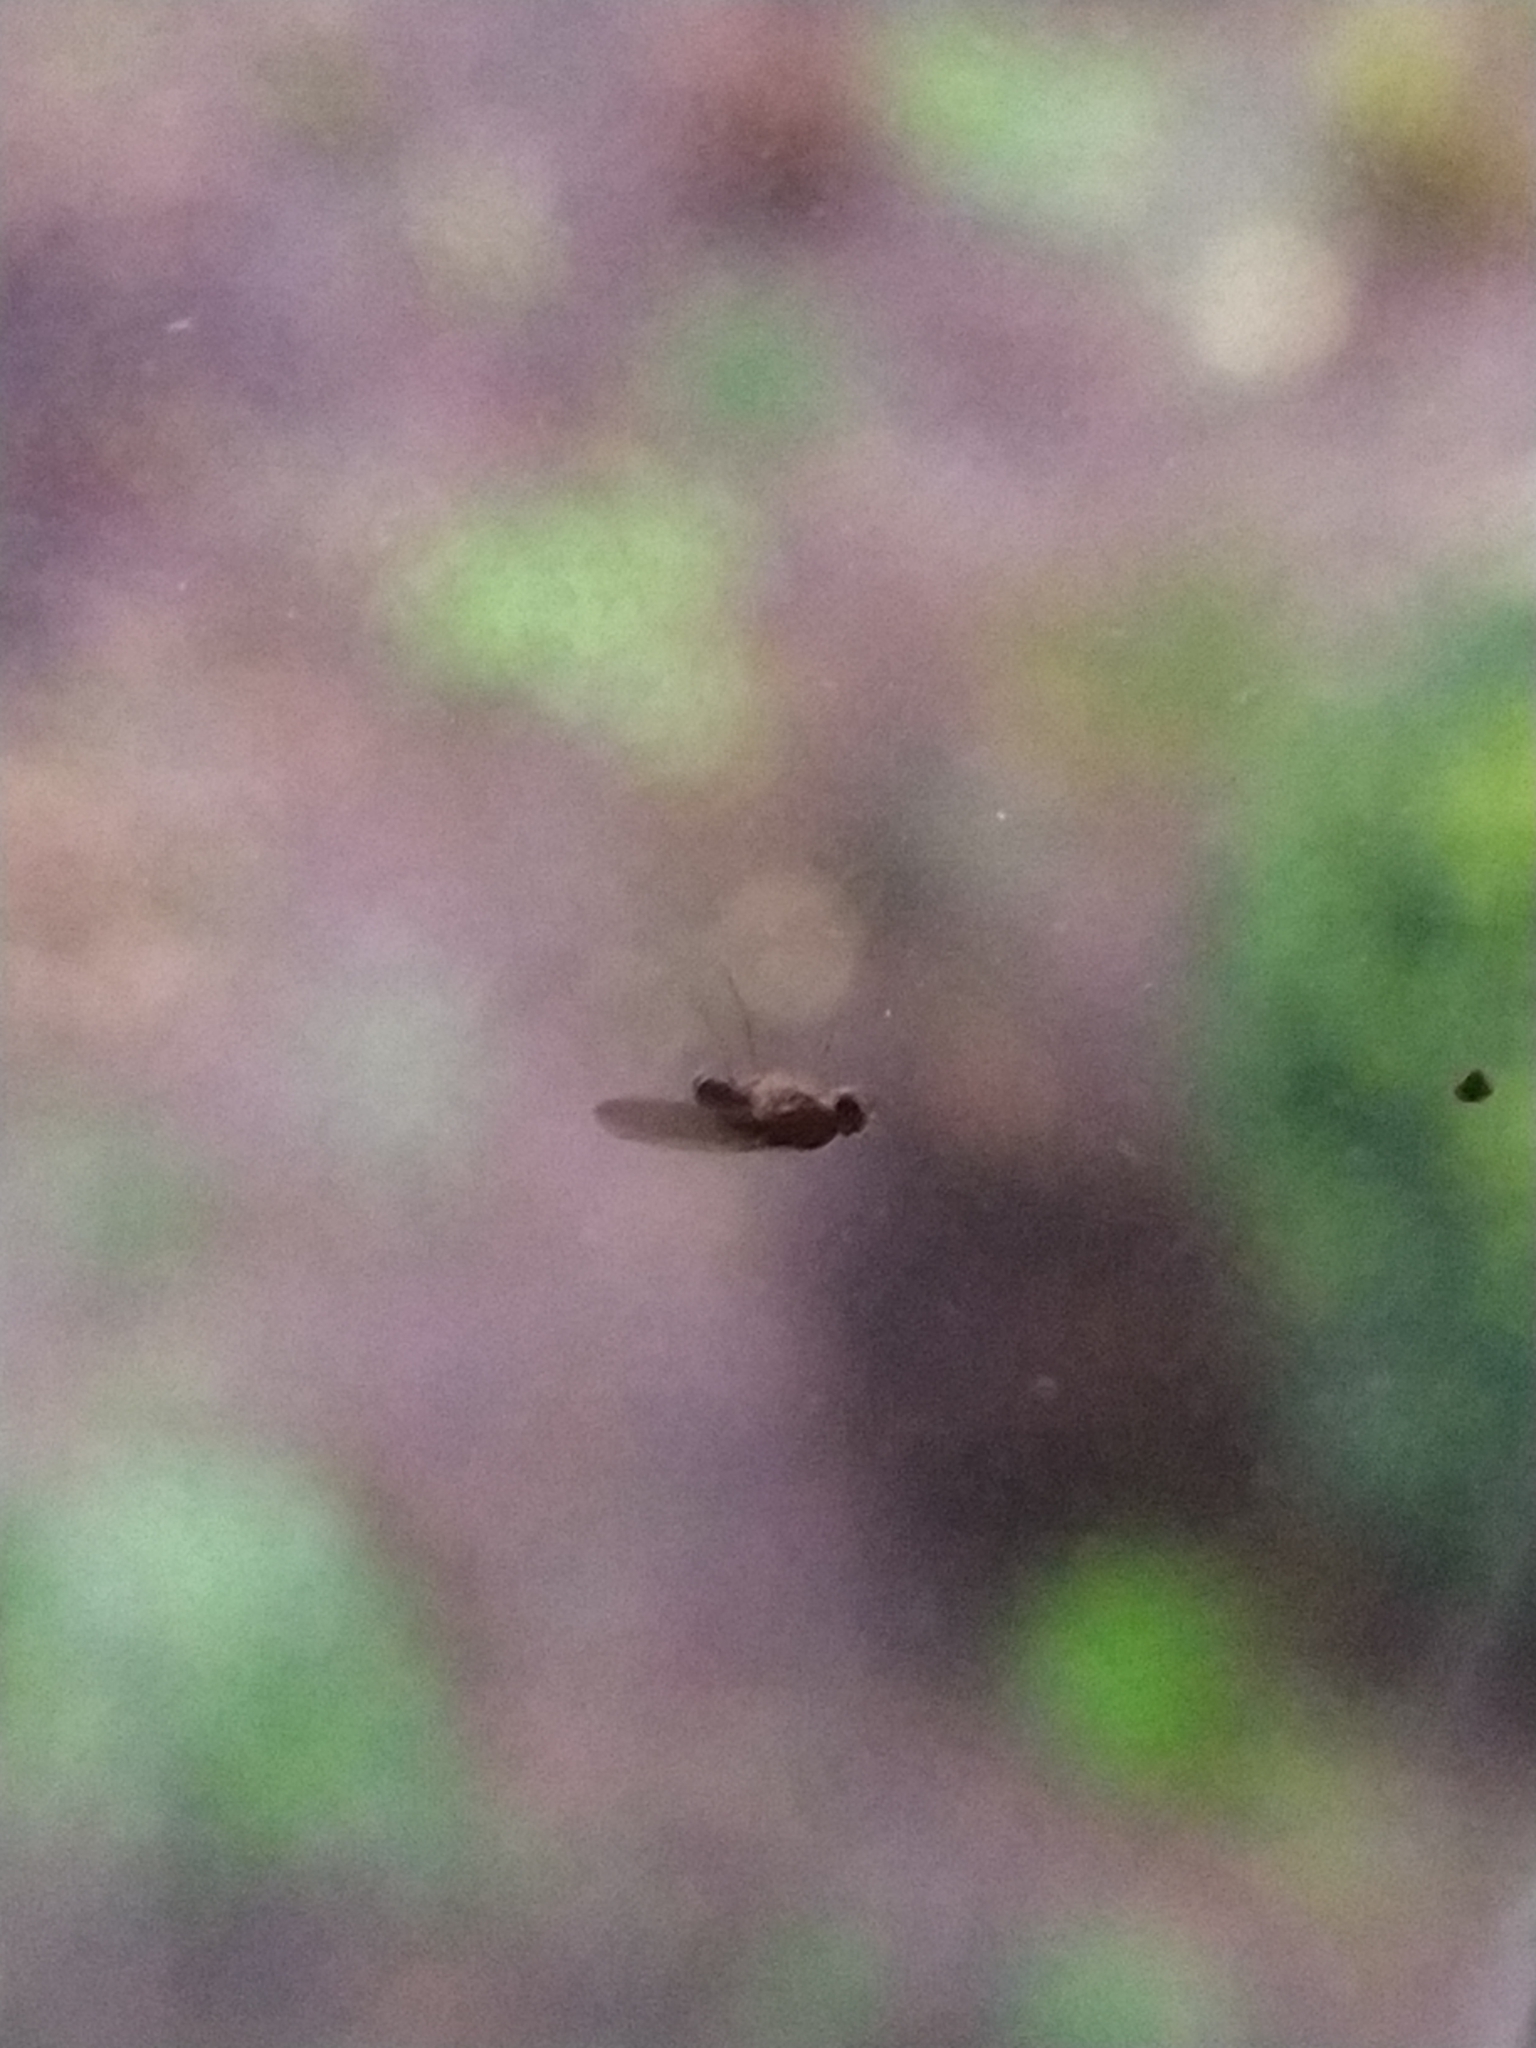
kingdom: Animalia
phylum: Arthropoda
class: Insecta
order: Diptera
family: Drosophilidae
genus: Drosophila
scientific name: Drosophila funebris
